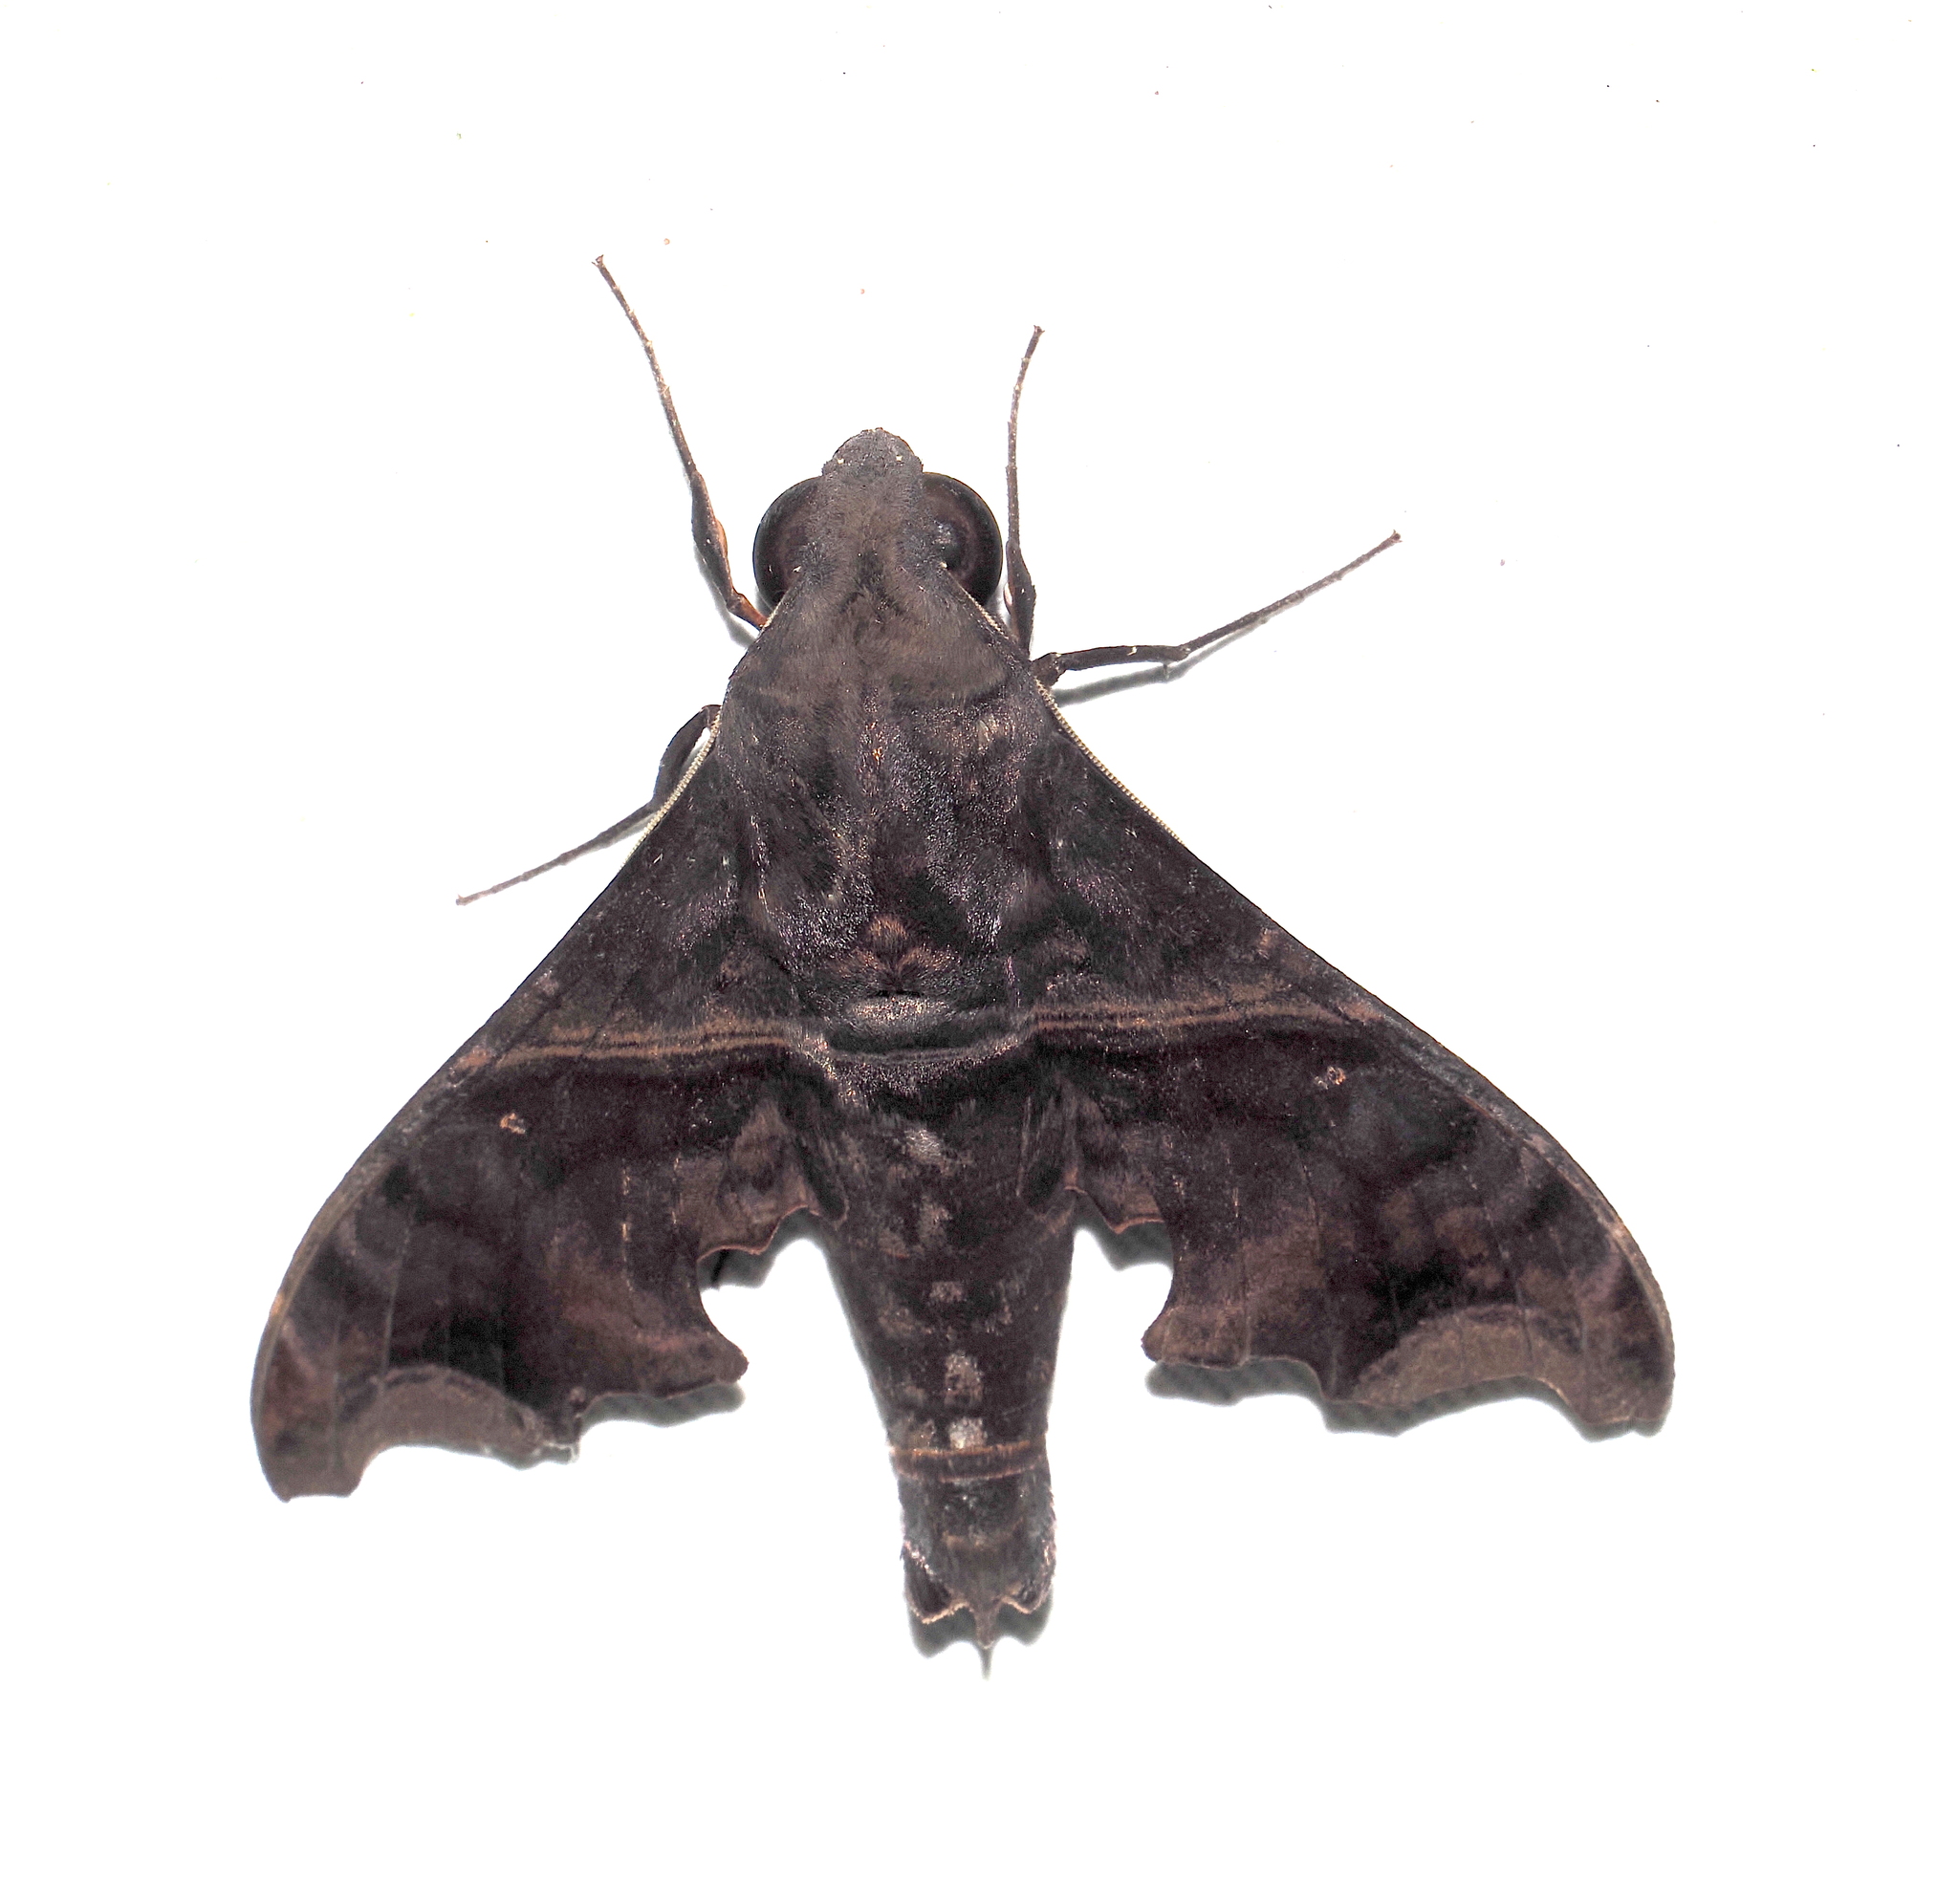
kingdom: Animalia
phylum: Arthropoda
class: Insecta
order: Lepidoptera
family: Sphingidae
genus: Enyo
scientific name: Enyo ocypete
